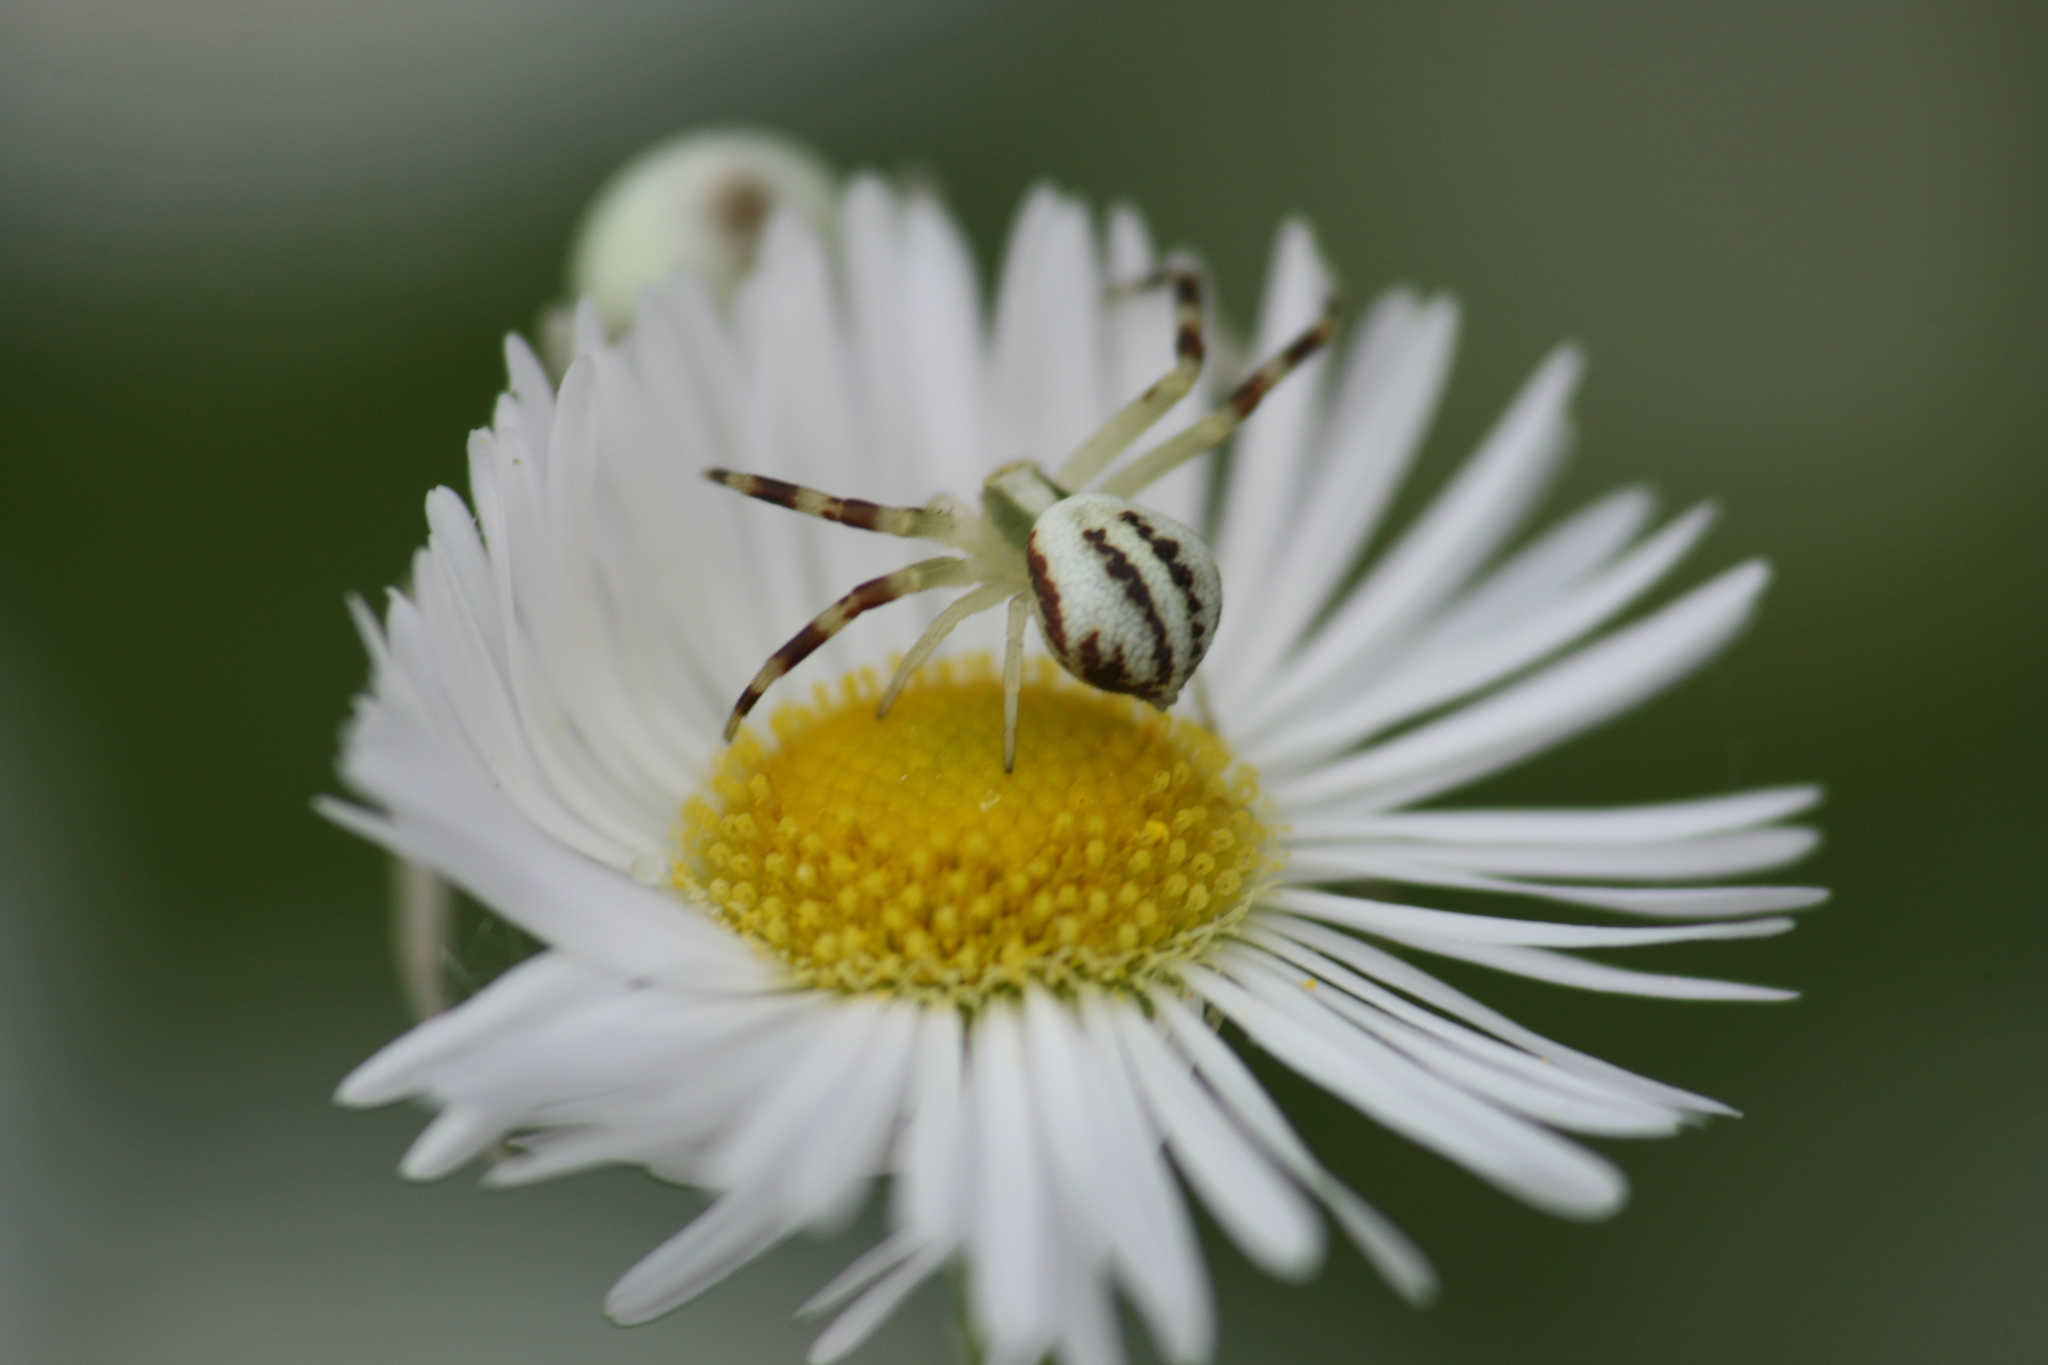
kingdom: Animalia
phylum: Arthropoda
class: Arachnida
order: Araneae
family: Thomisidae
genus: Misumena
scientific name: Misumena vatia
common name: Goldenrod crab spider
